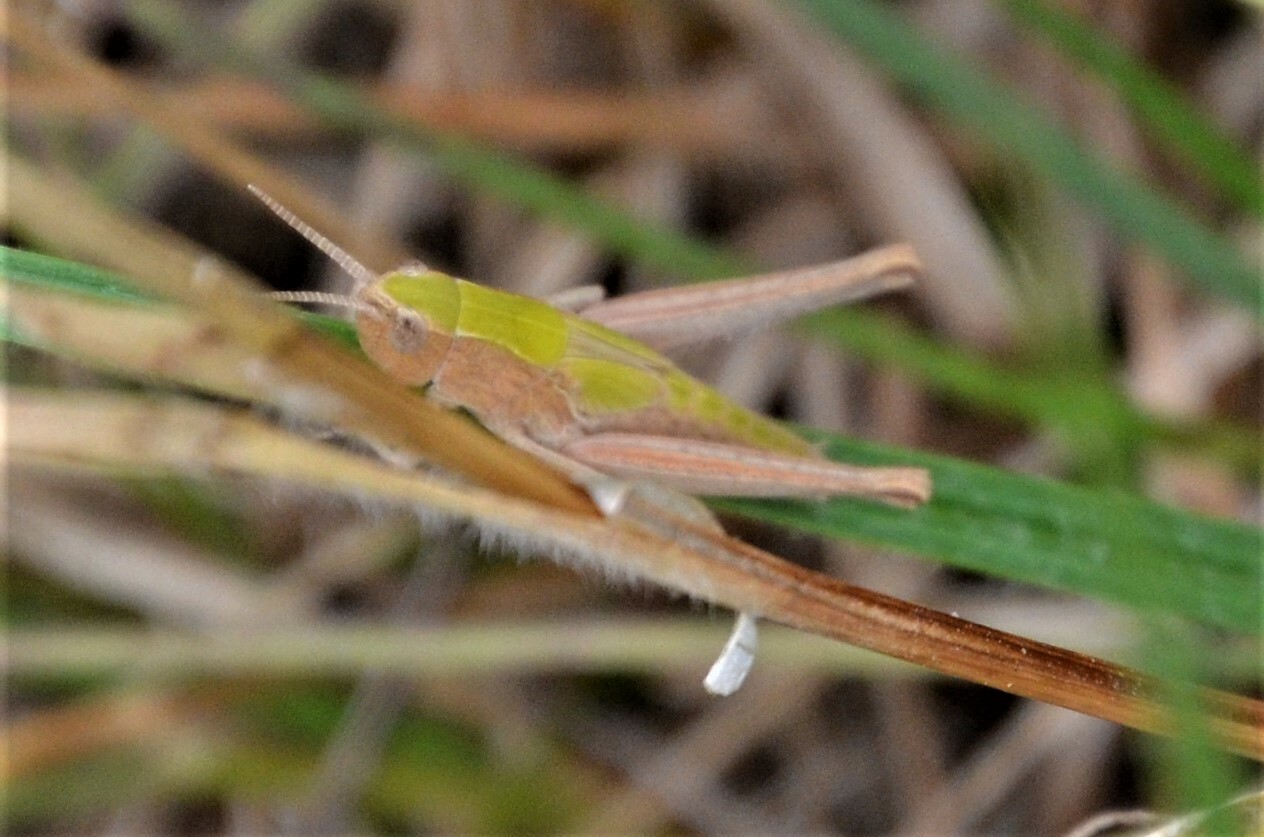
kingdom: Animalia
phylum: Arthropoda
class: Insecta
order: Orthoptera
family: Acrididae
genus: Chorthippus
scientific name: Chorthippus dorsatus
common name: Steppe grasshopper
